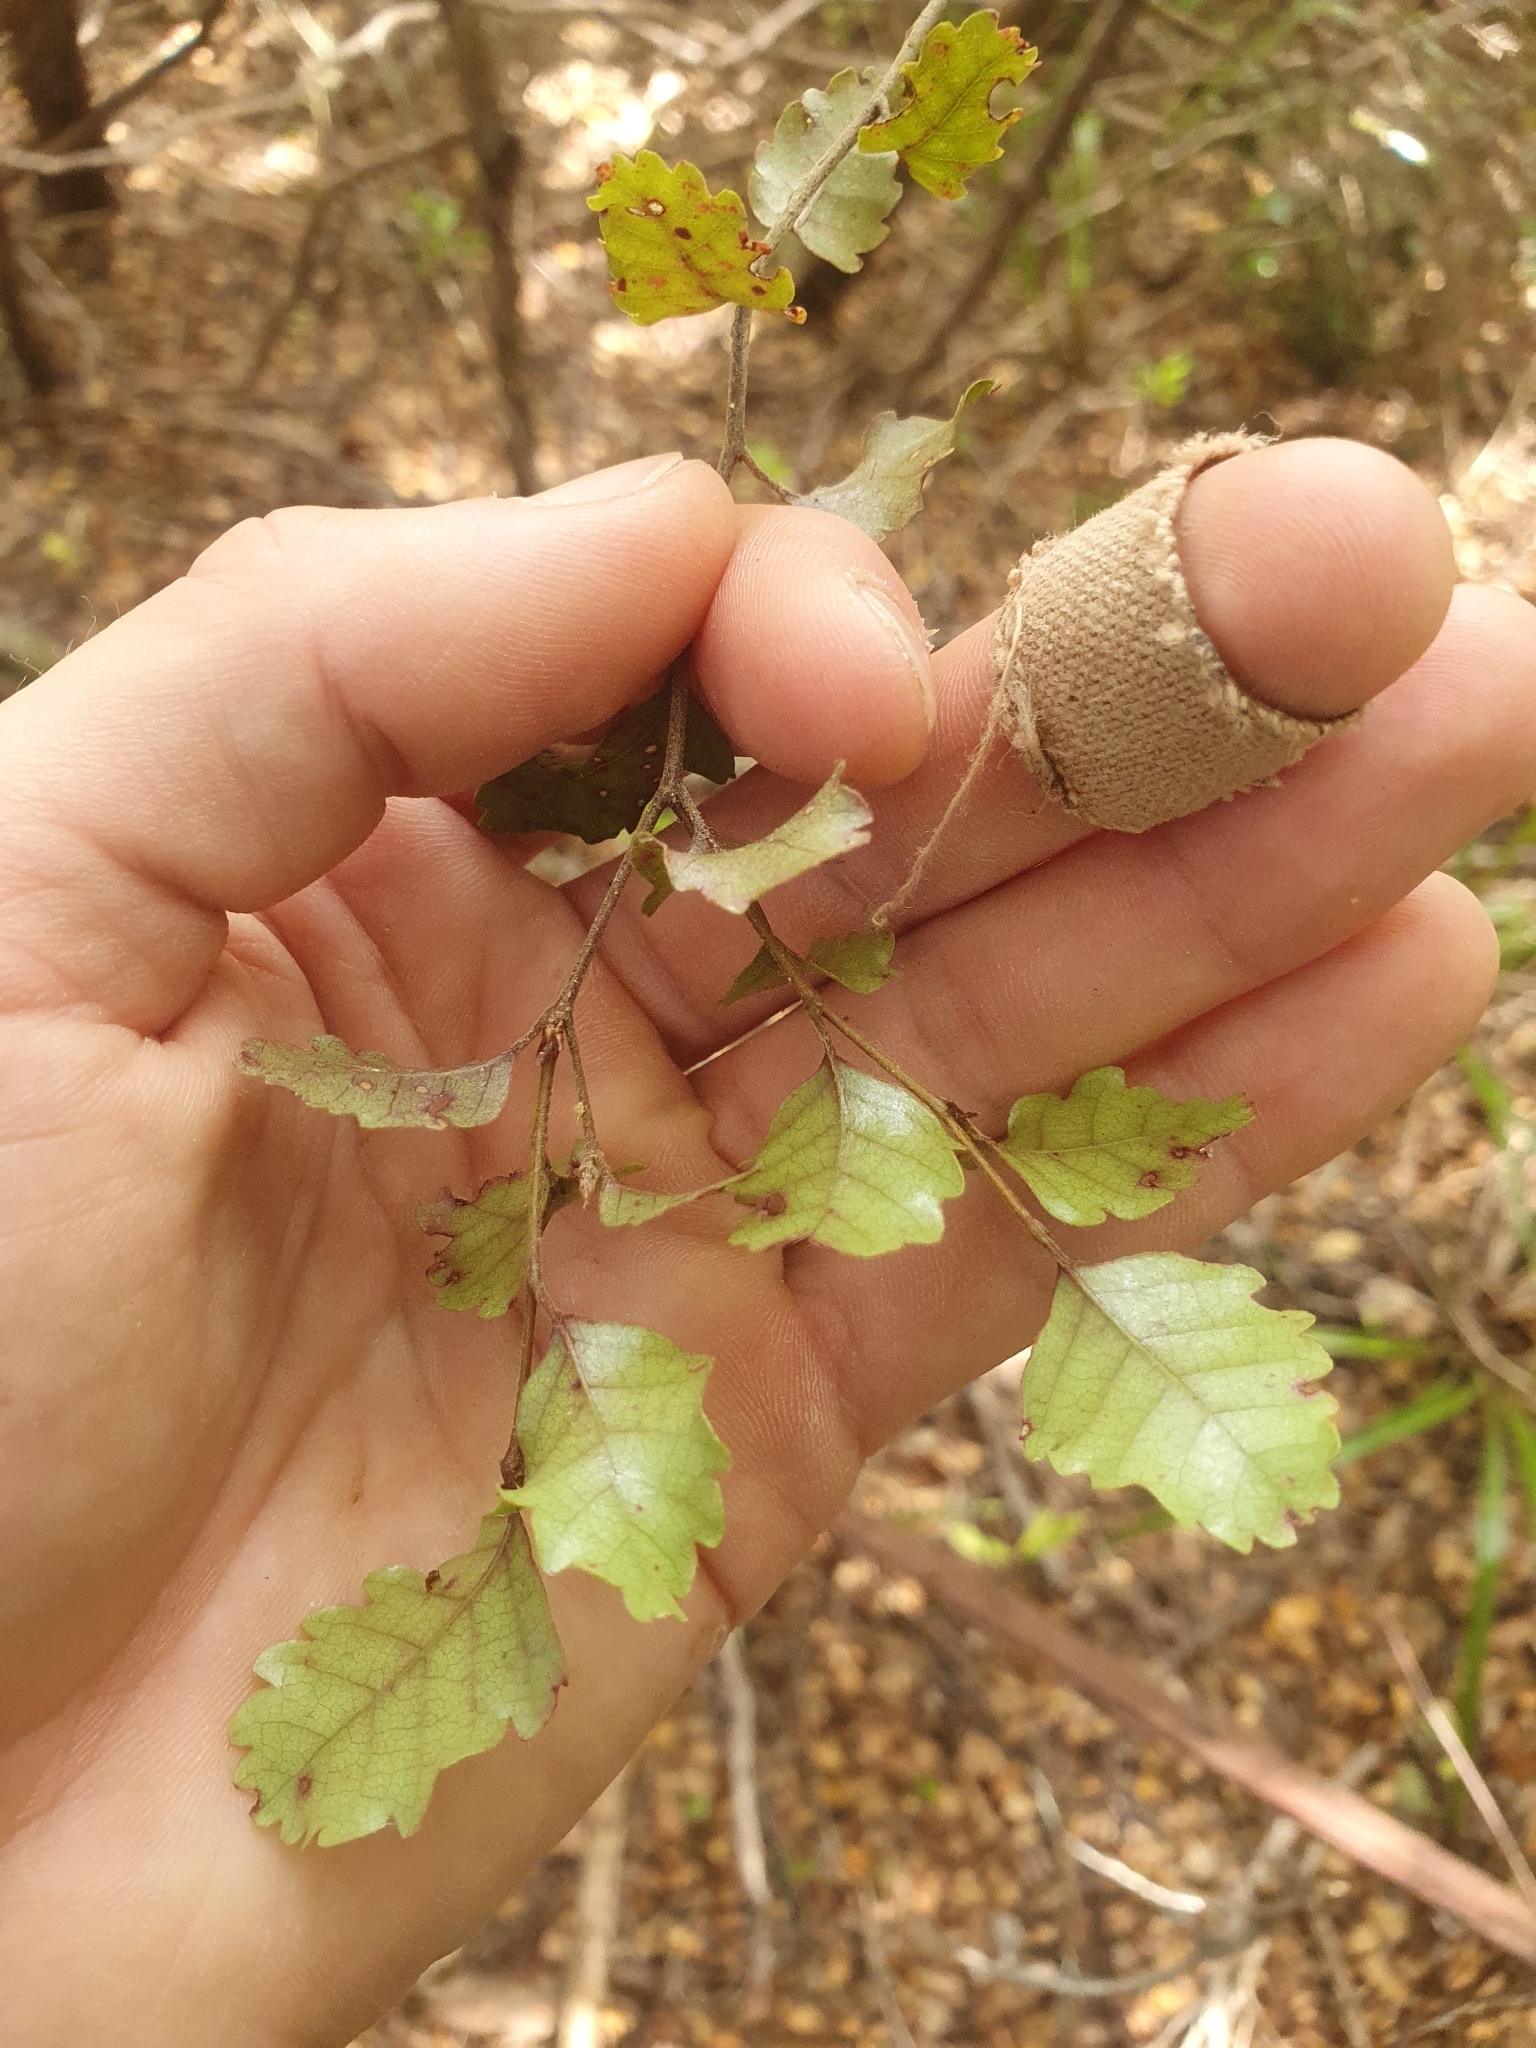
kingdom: Plantae
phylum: Tracheophyta
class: Magnoliopsida
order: Fagales
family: Nothofagaceae
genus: Nothofagus
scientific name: Nothofagus truncata
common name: Hard beech
